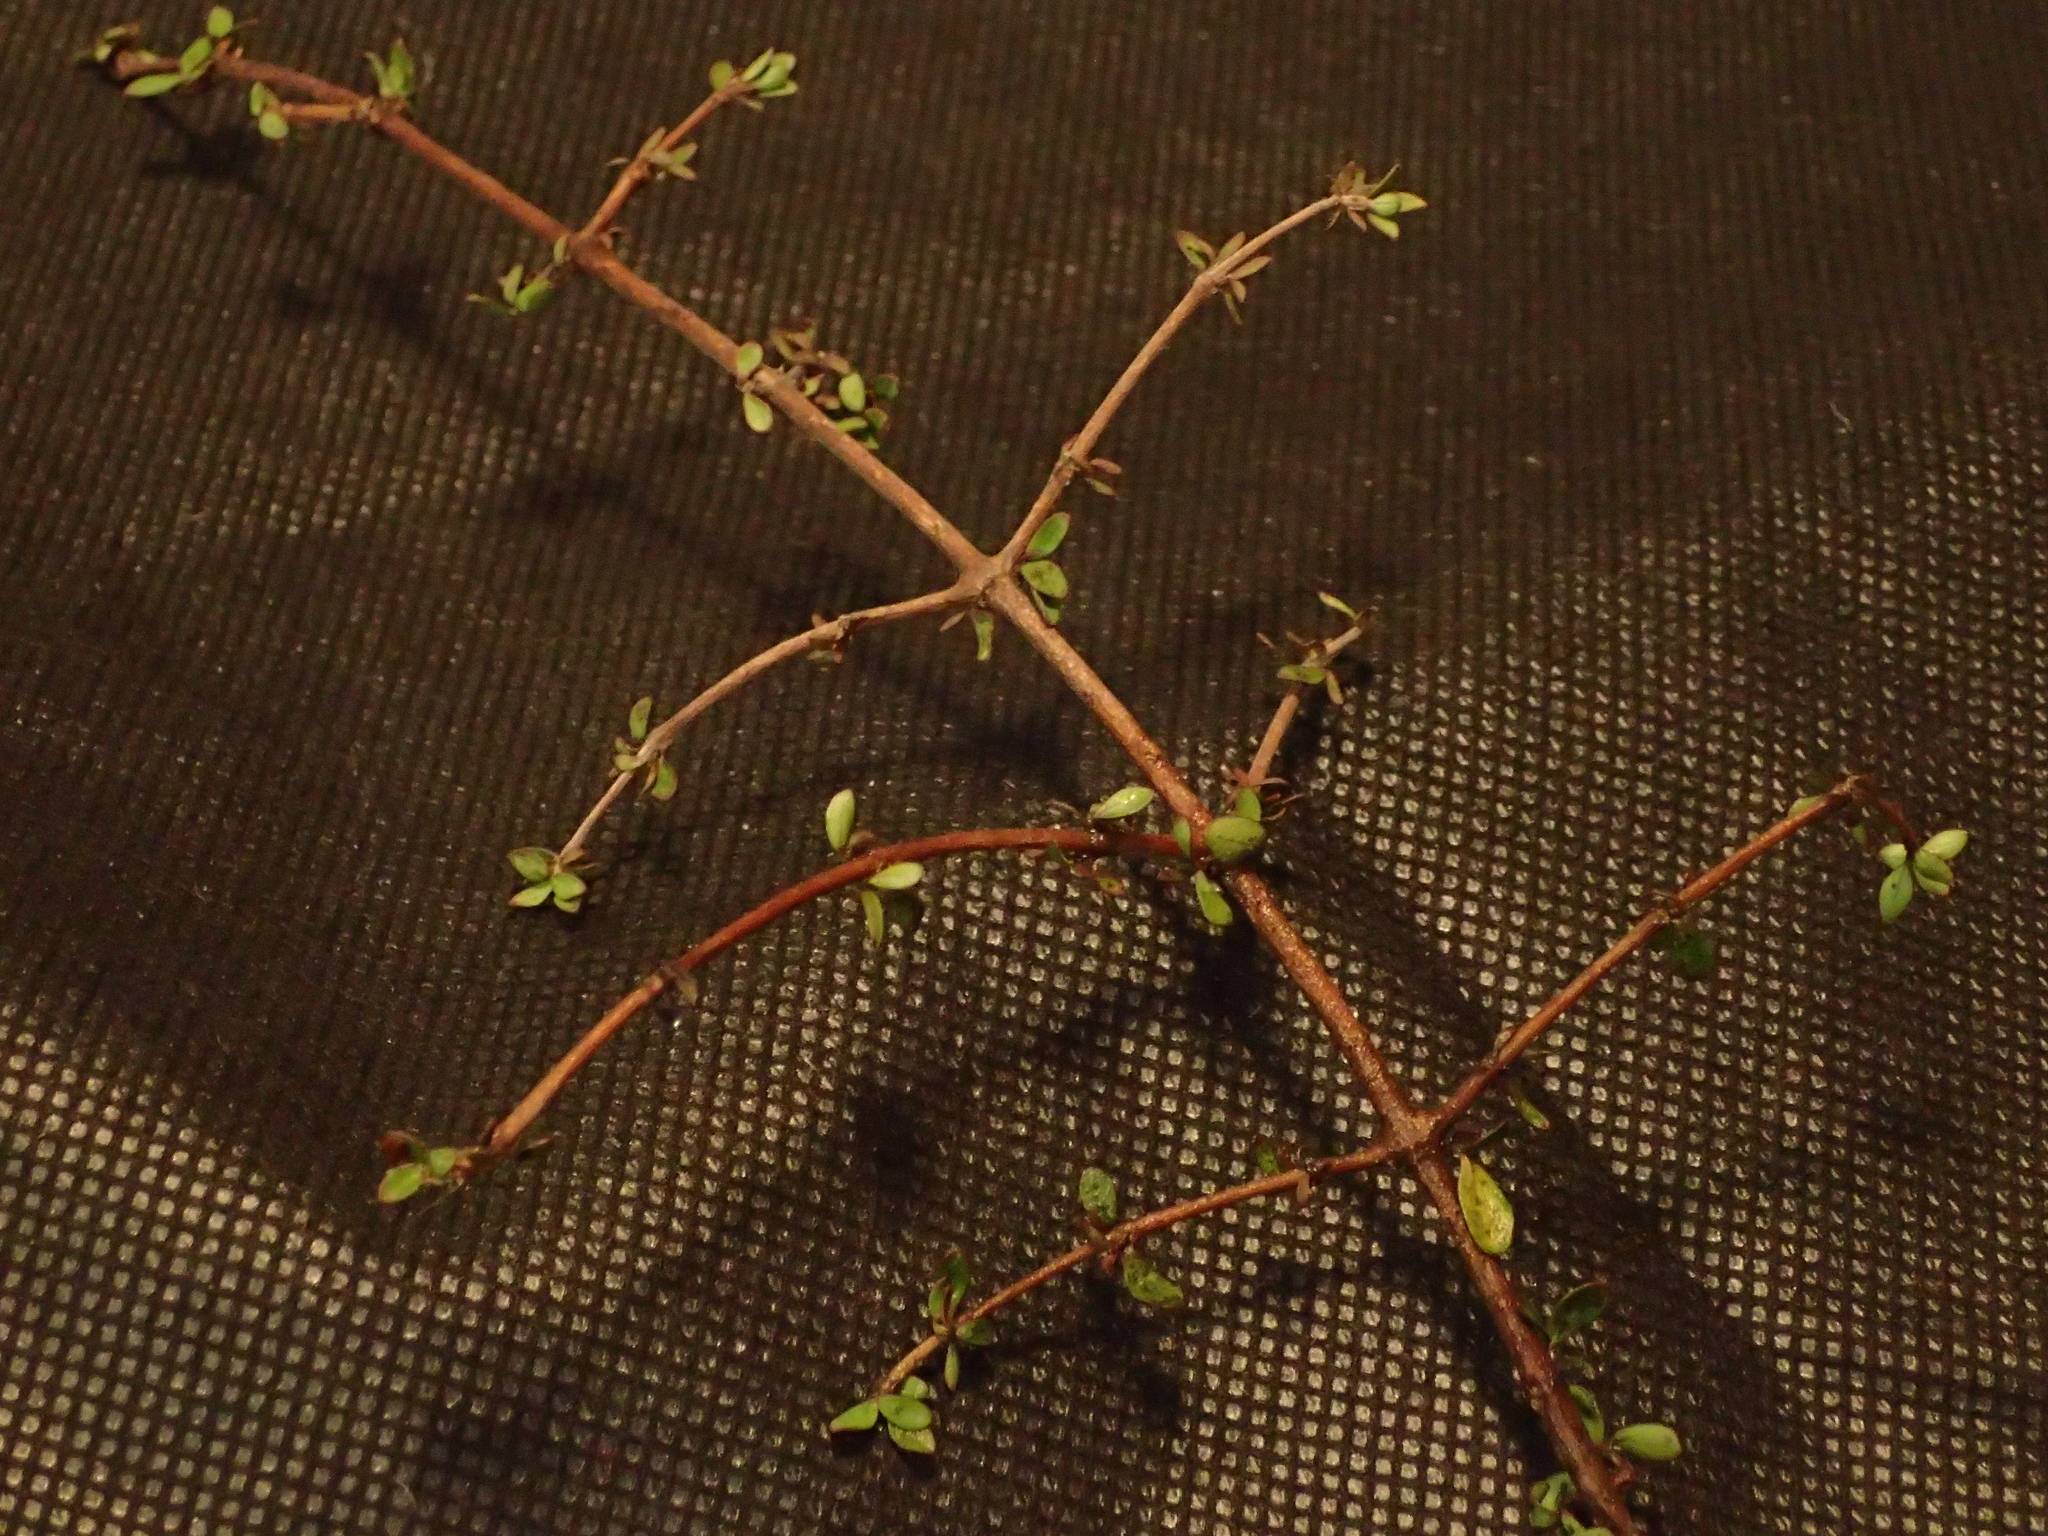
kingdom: Plantae
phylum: Tracheophyta
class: Magnoliopsida
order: Gentianales
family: Rubiaceae
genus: Coprosma
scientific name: Coprosma virescens
